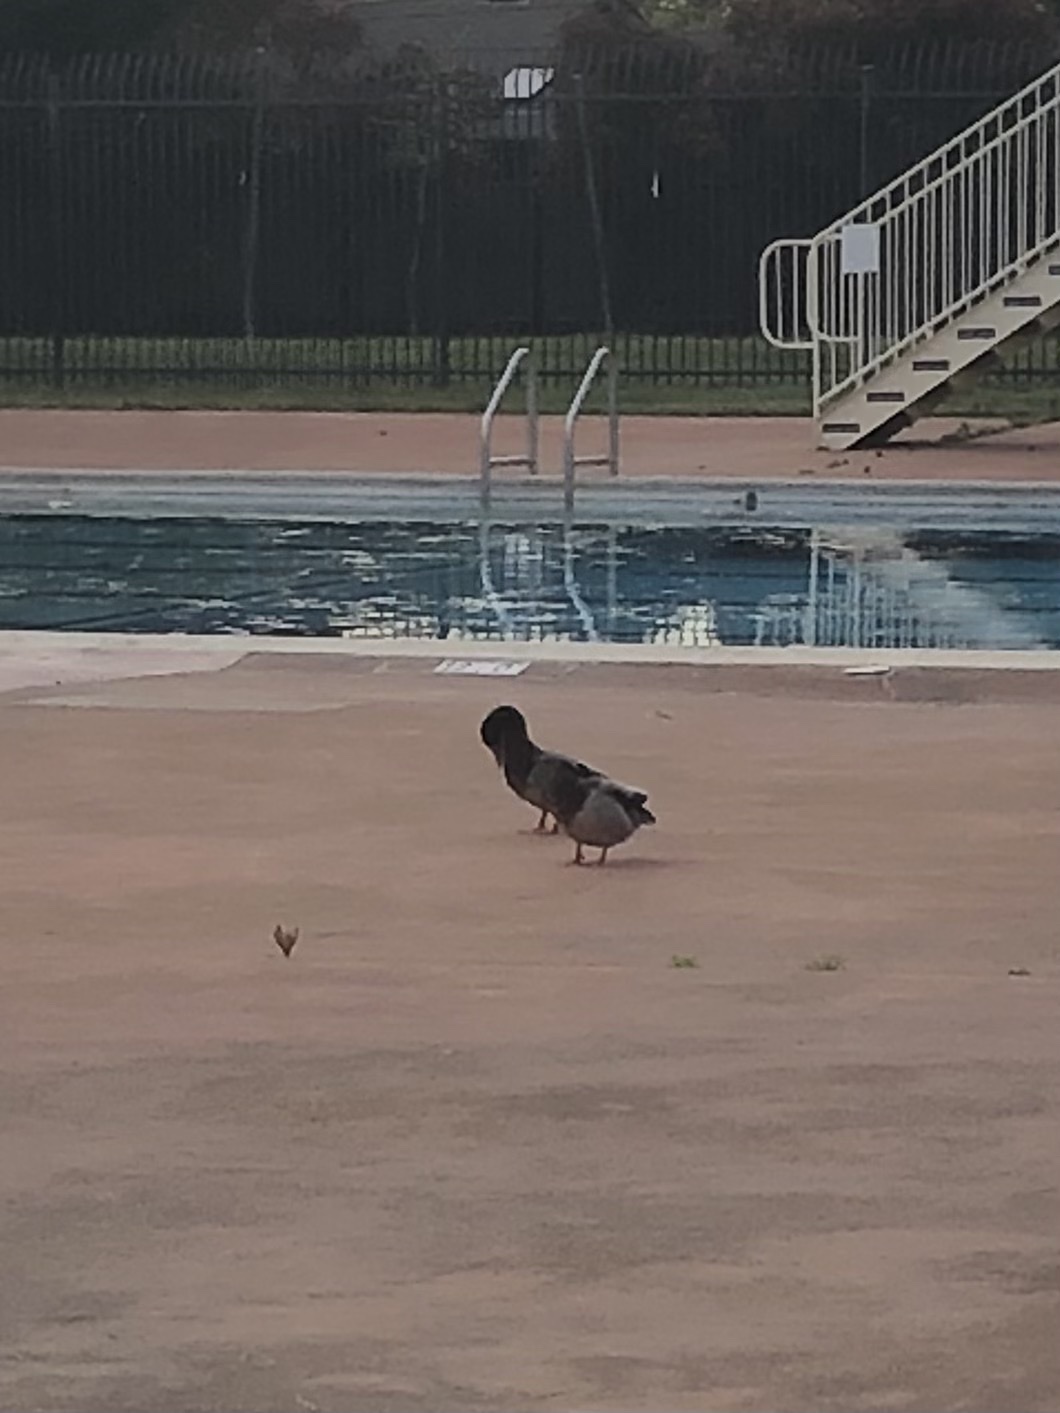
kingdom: Animalia
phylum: Chordata
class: Aves
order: Anseriformes
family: Anatidae
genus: Anas
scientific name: Anas platyrhynchos
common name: Mallard
